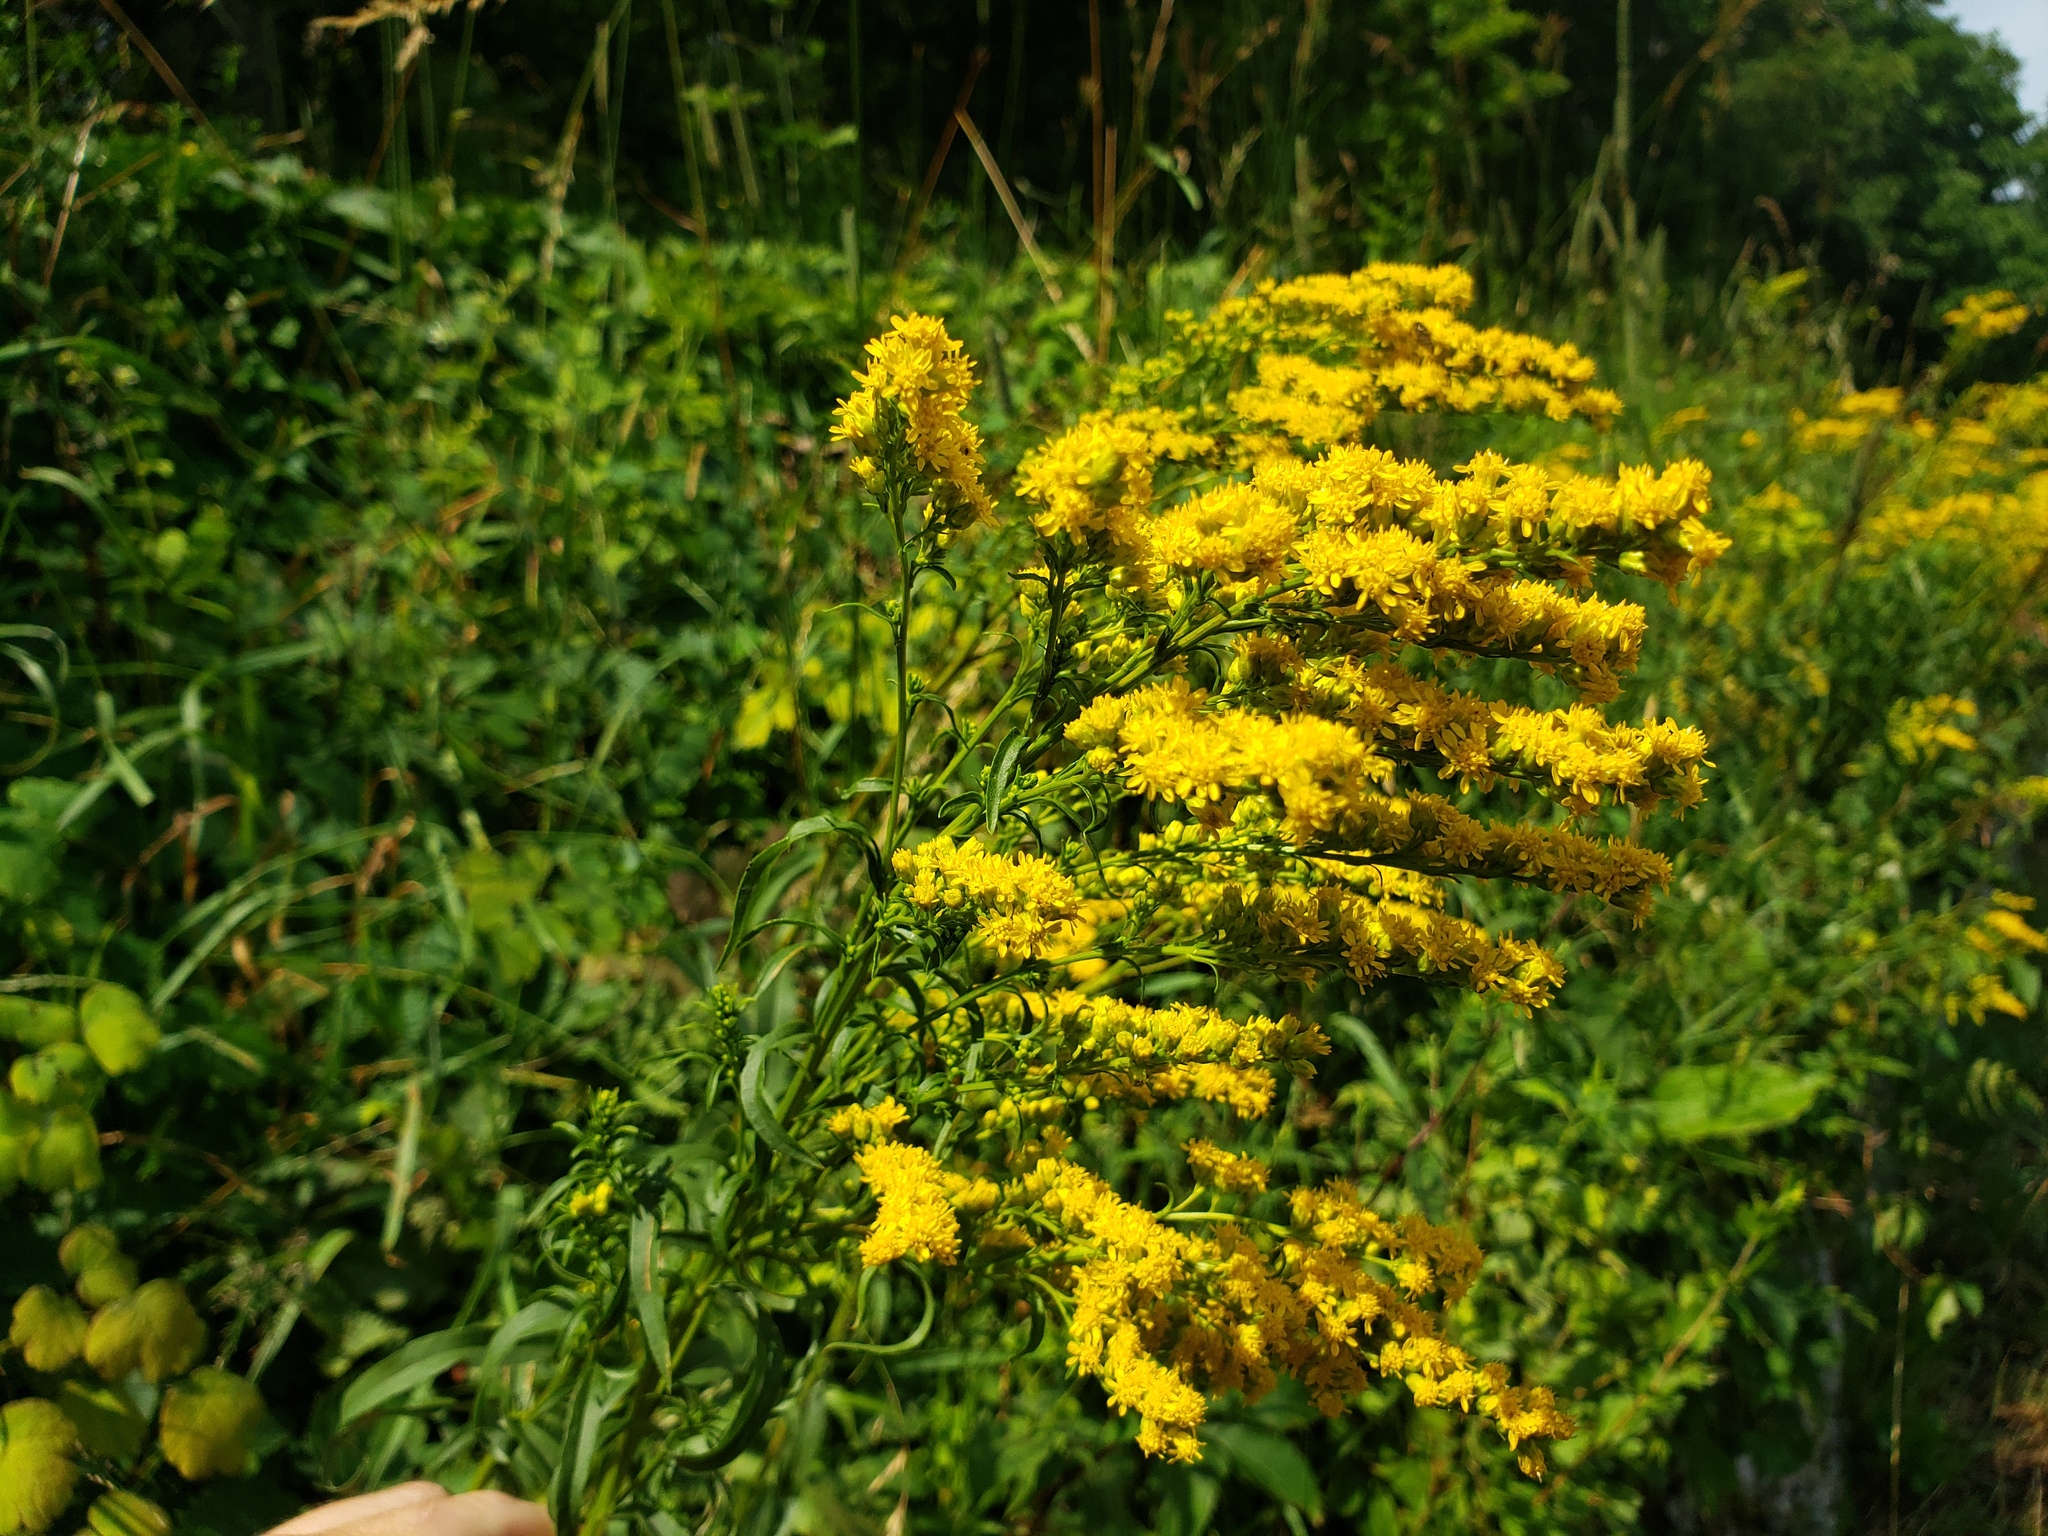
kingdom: Plantae
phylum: Tracheophyta
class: Magnoliopsida
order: Asterales
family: Asteraceae
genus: Solidago
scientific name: Solidago canadensis
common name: Canada goldenrod
